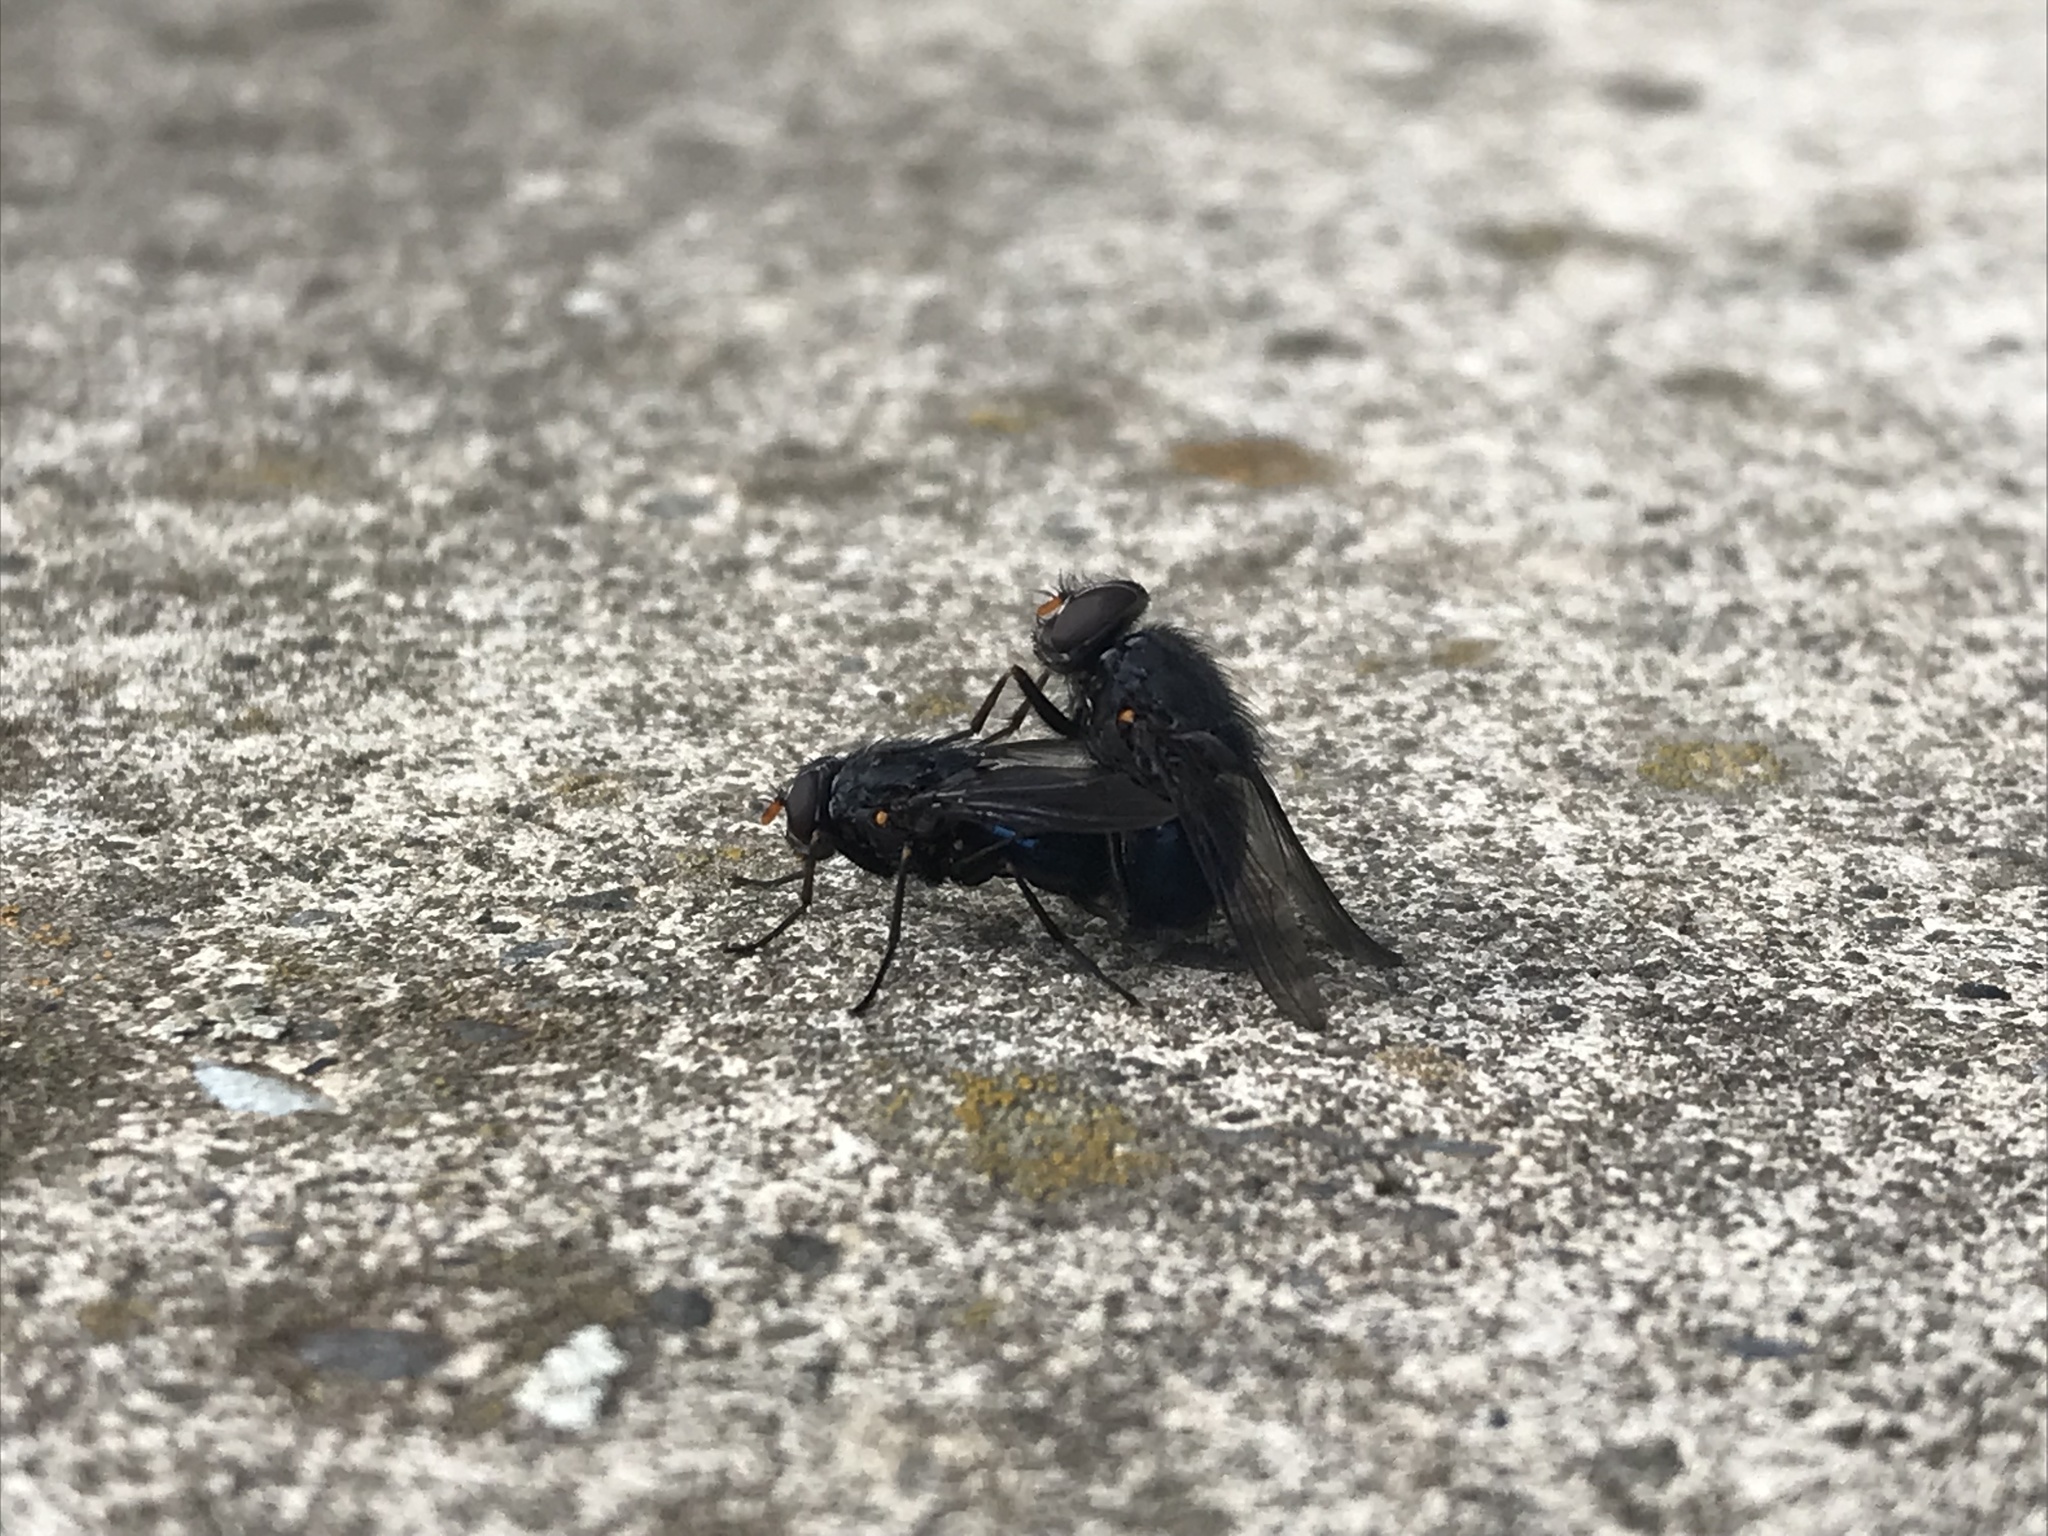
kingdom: Animalia
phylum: Arthropoda
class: Insecta
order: Diptera
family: Muscidae
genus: Calliphoroides
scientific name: Calliphoroides antennatis
